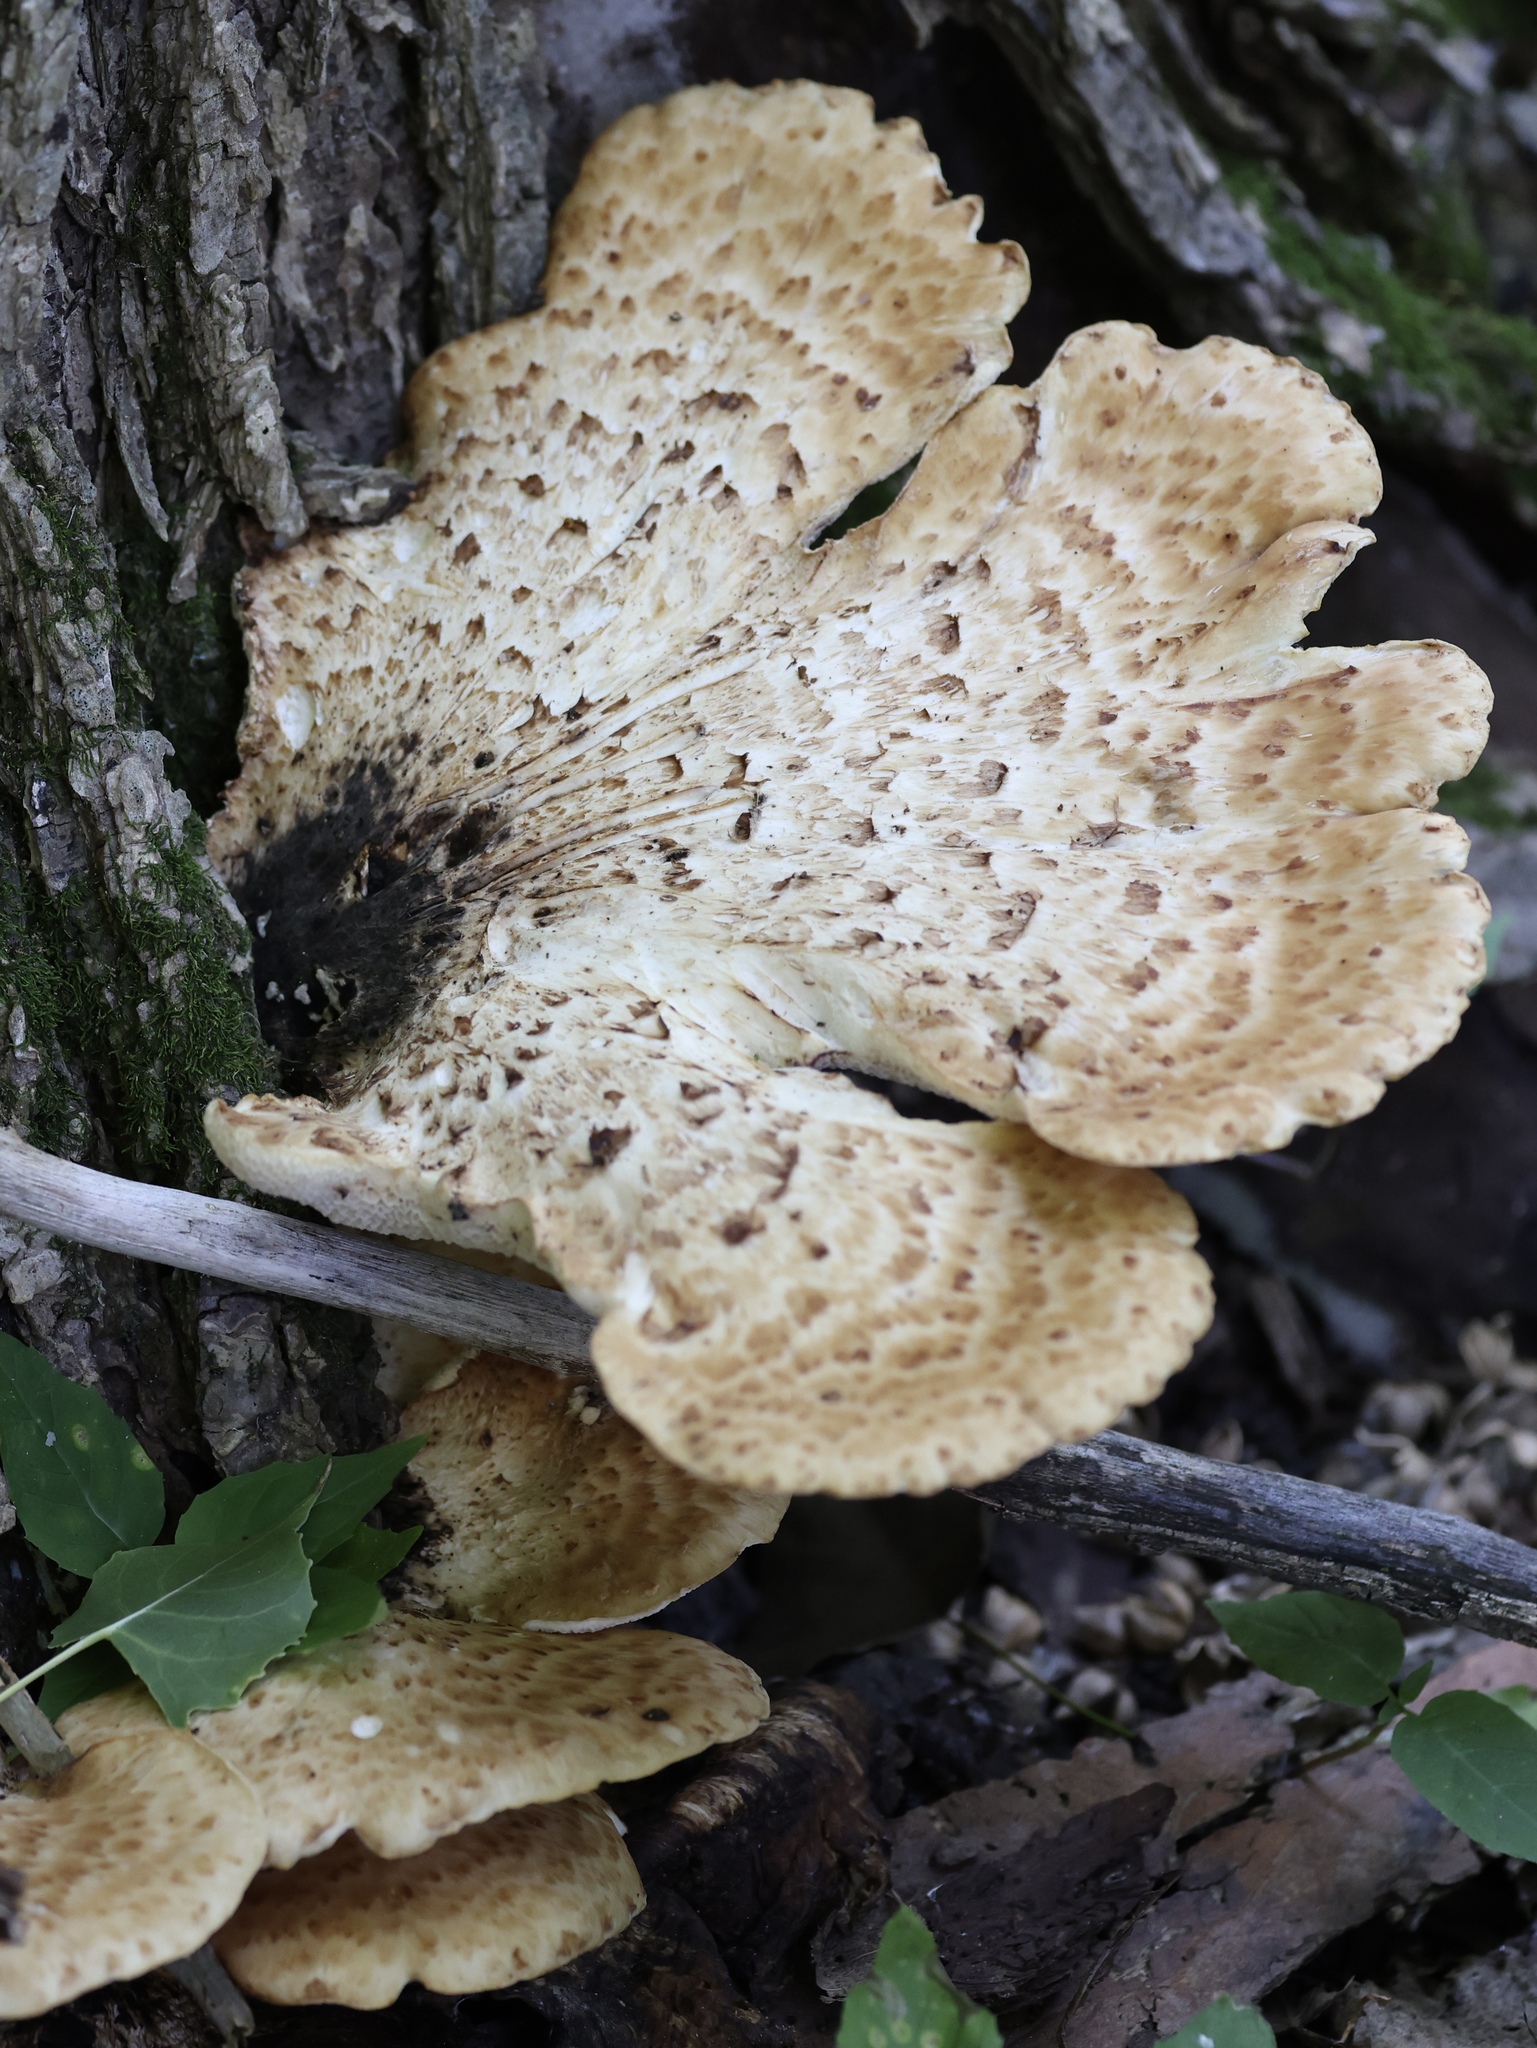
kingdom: Fungi
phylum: Basidiomycota
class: Agaricomycetes
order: Polyporales
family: Polyporaceae
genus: Cerioporus
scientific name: Cerioporus squamosus
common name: Dryad's saddle
